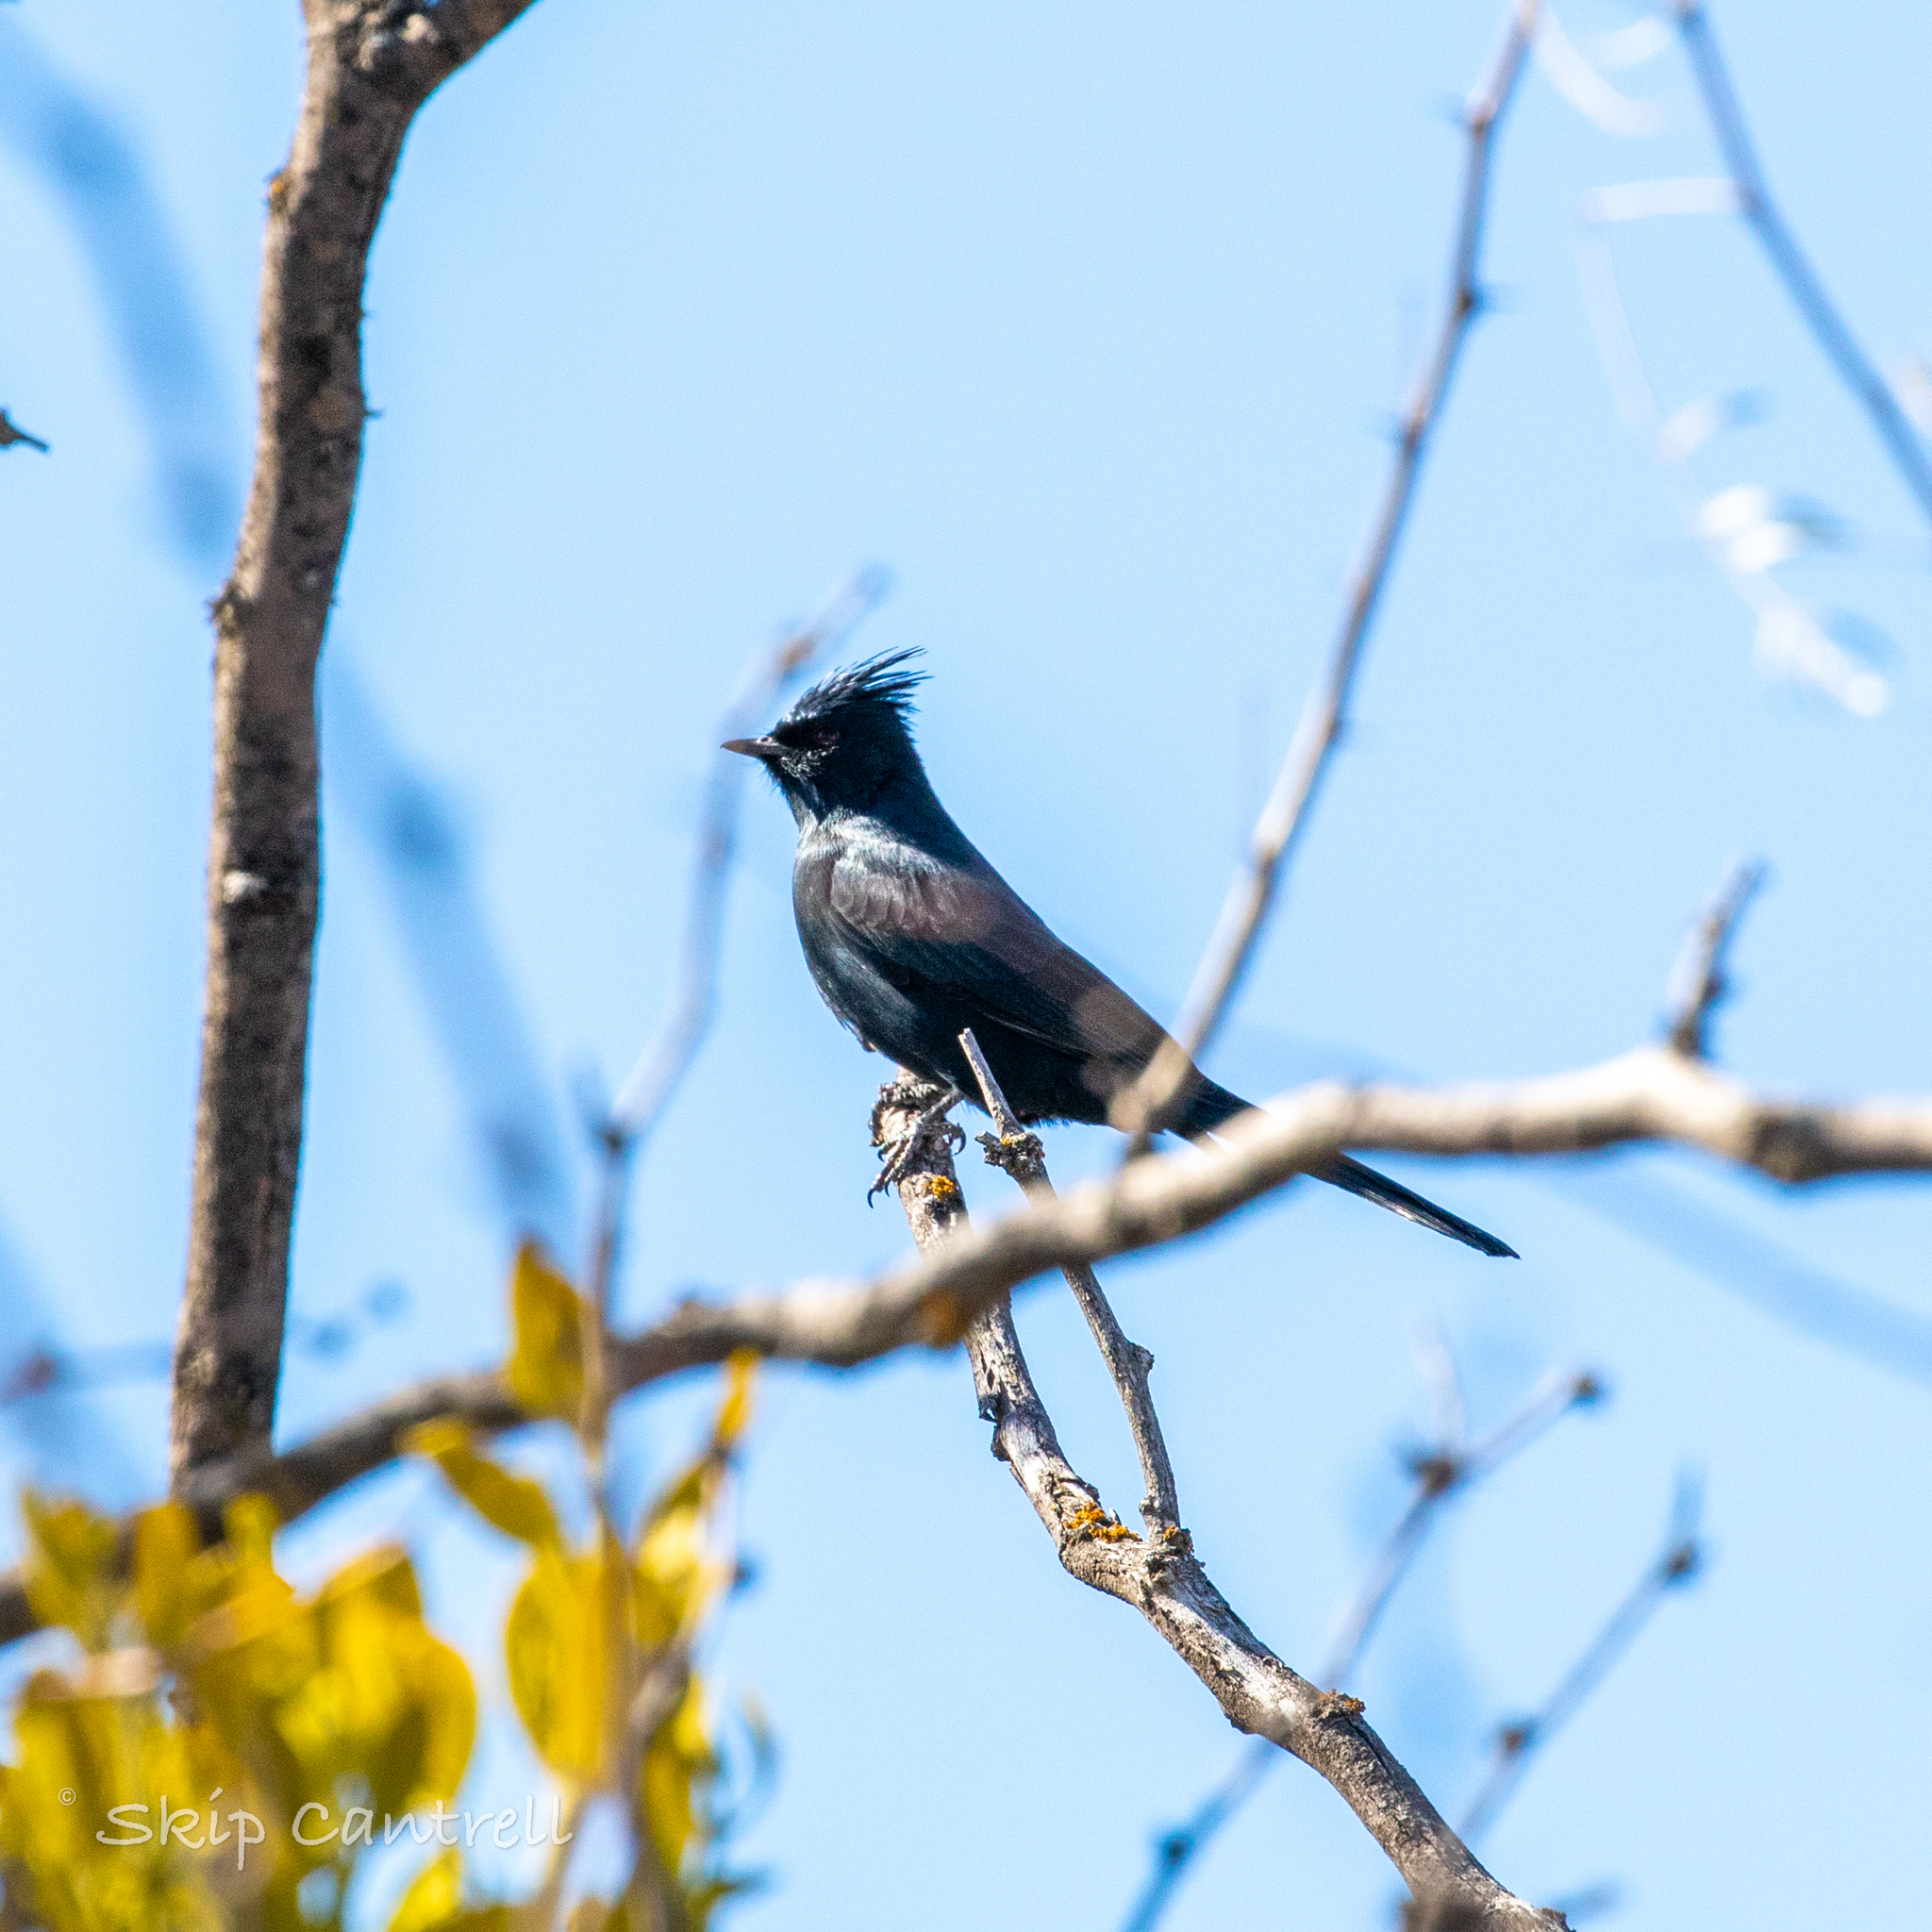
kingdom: Animalia
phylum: Chordata
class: Aves
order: Passeriformes
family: Ptilogonatidae
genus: Phainopepla
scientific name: Phainopepla nitens
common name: Phainopepla
